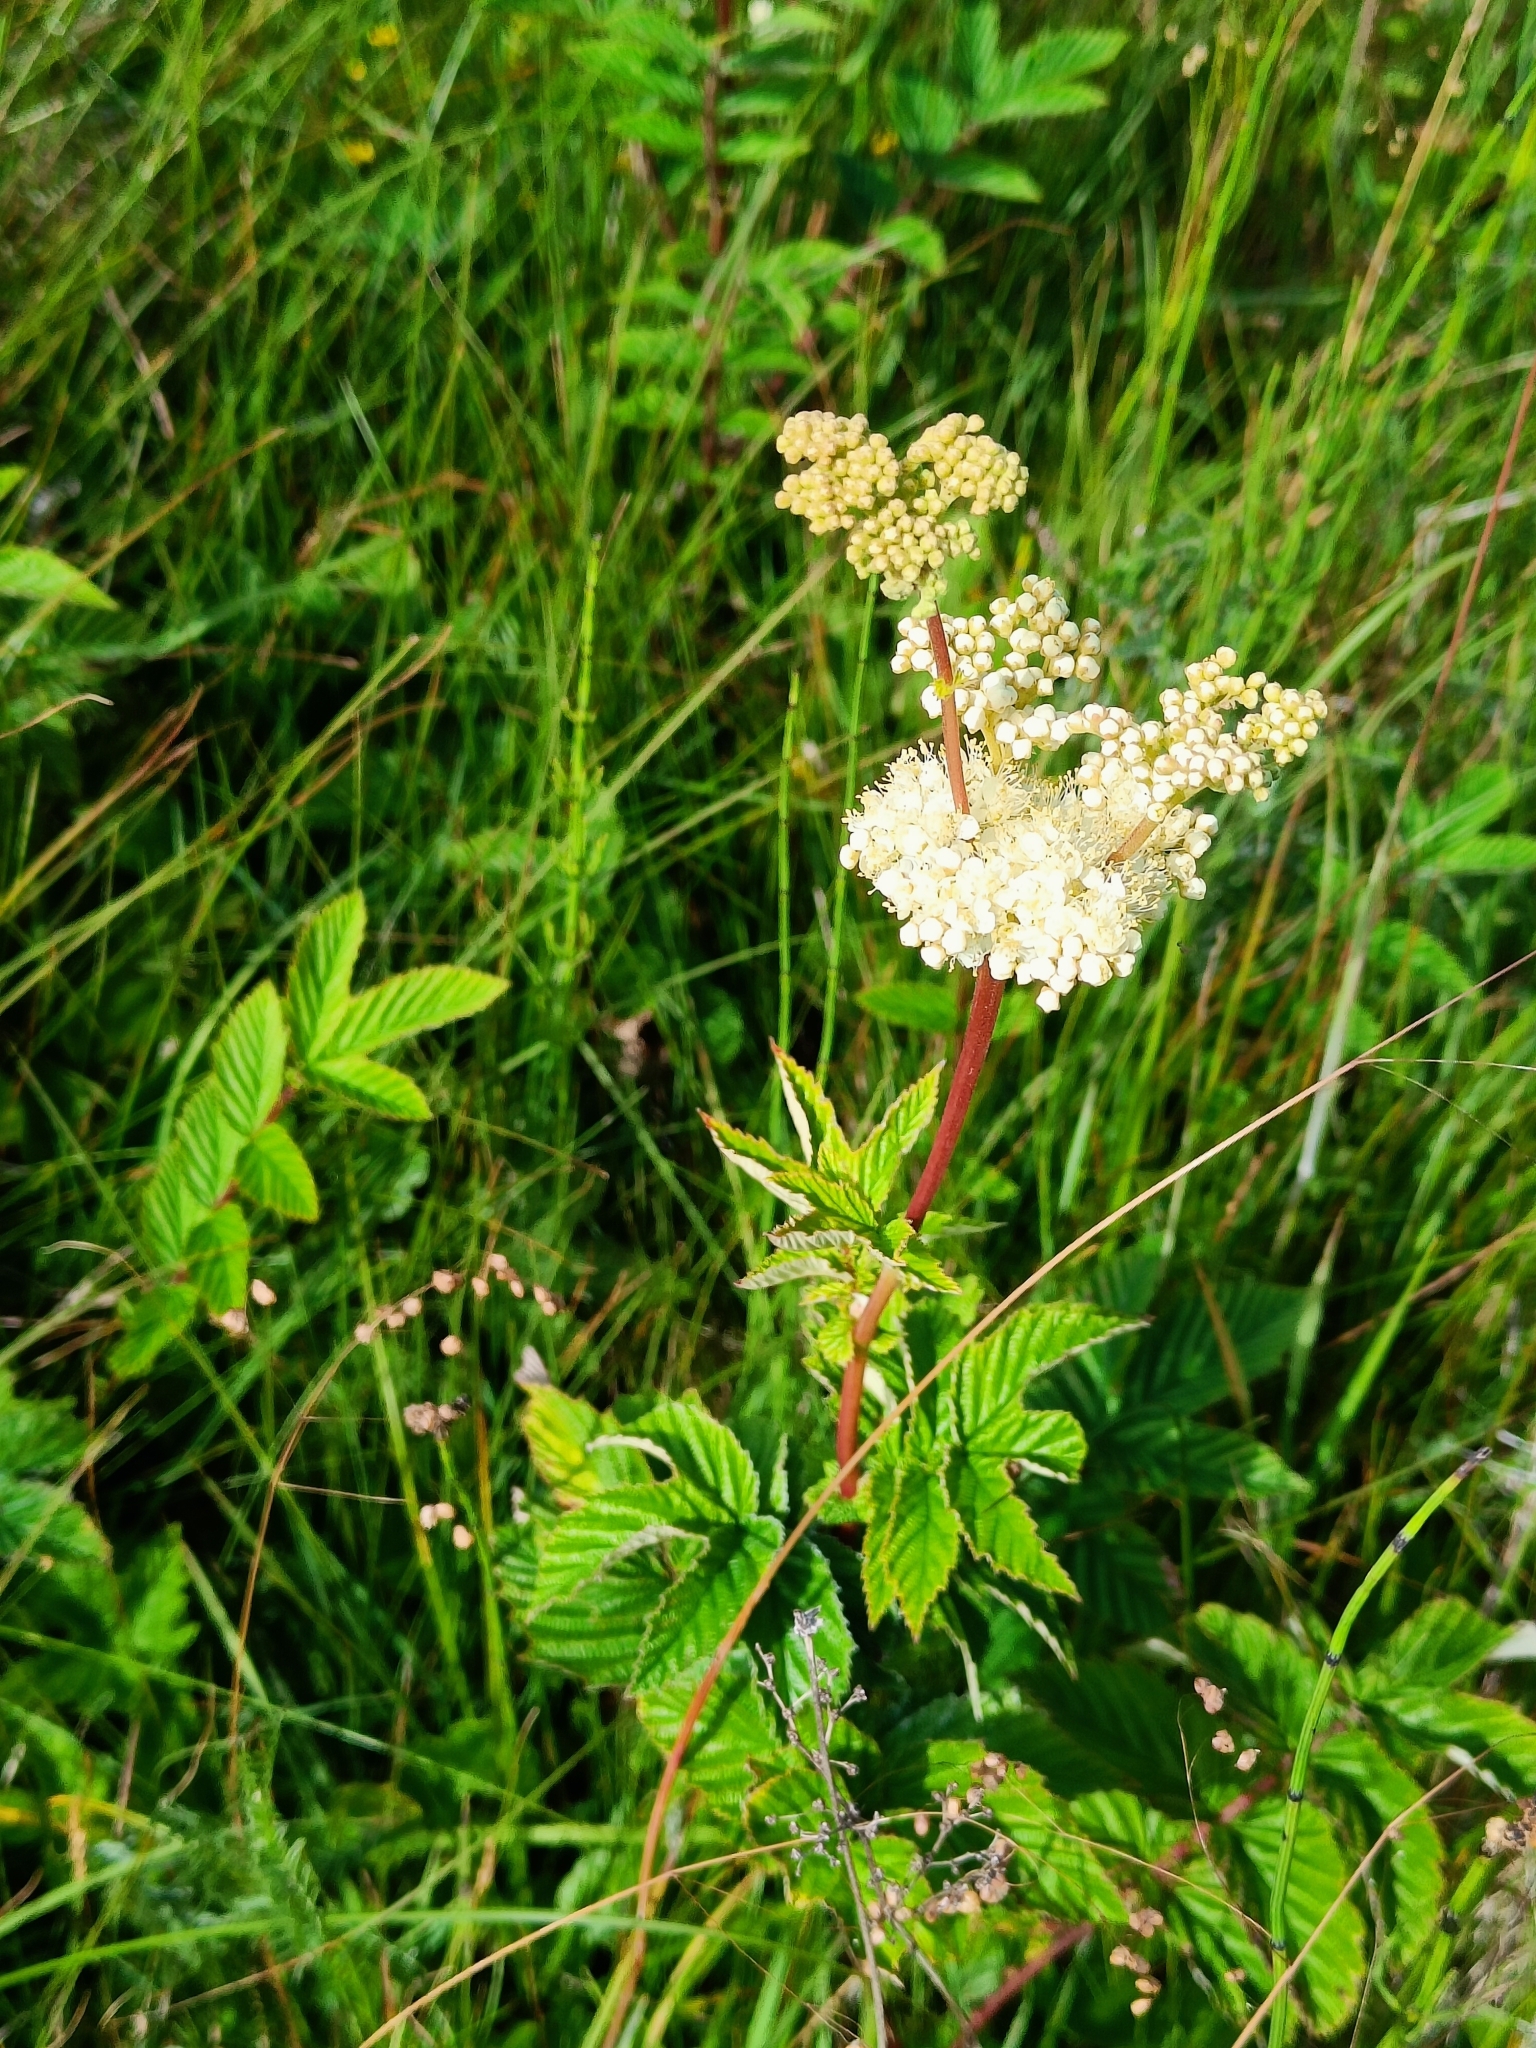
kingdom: Plantae
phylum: Tracheophyta
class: Magnoliopsida
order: Rosales
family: Rosaceae
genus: Filipendula
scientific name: Filipendula ulmaria
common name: Meadowsweet
